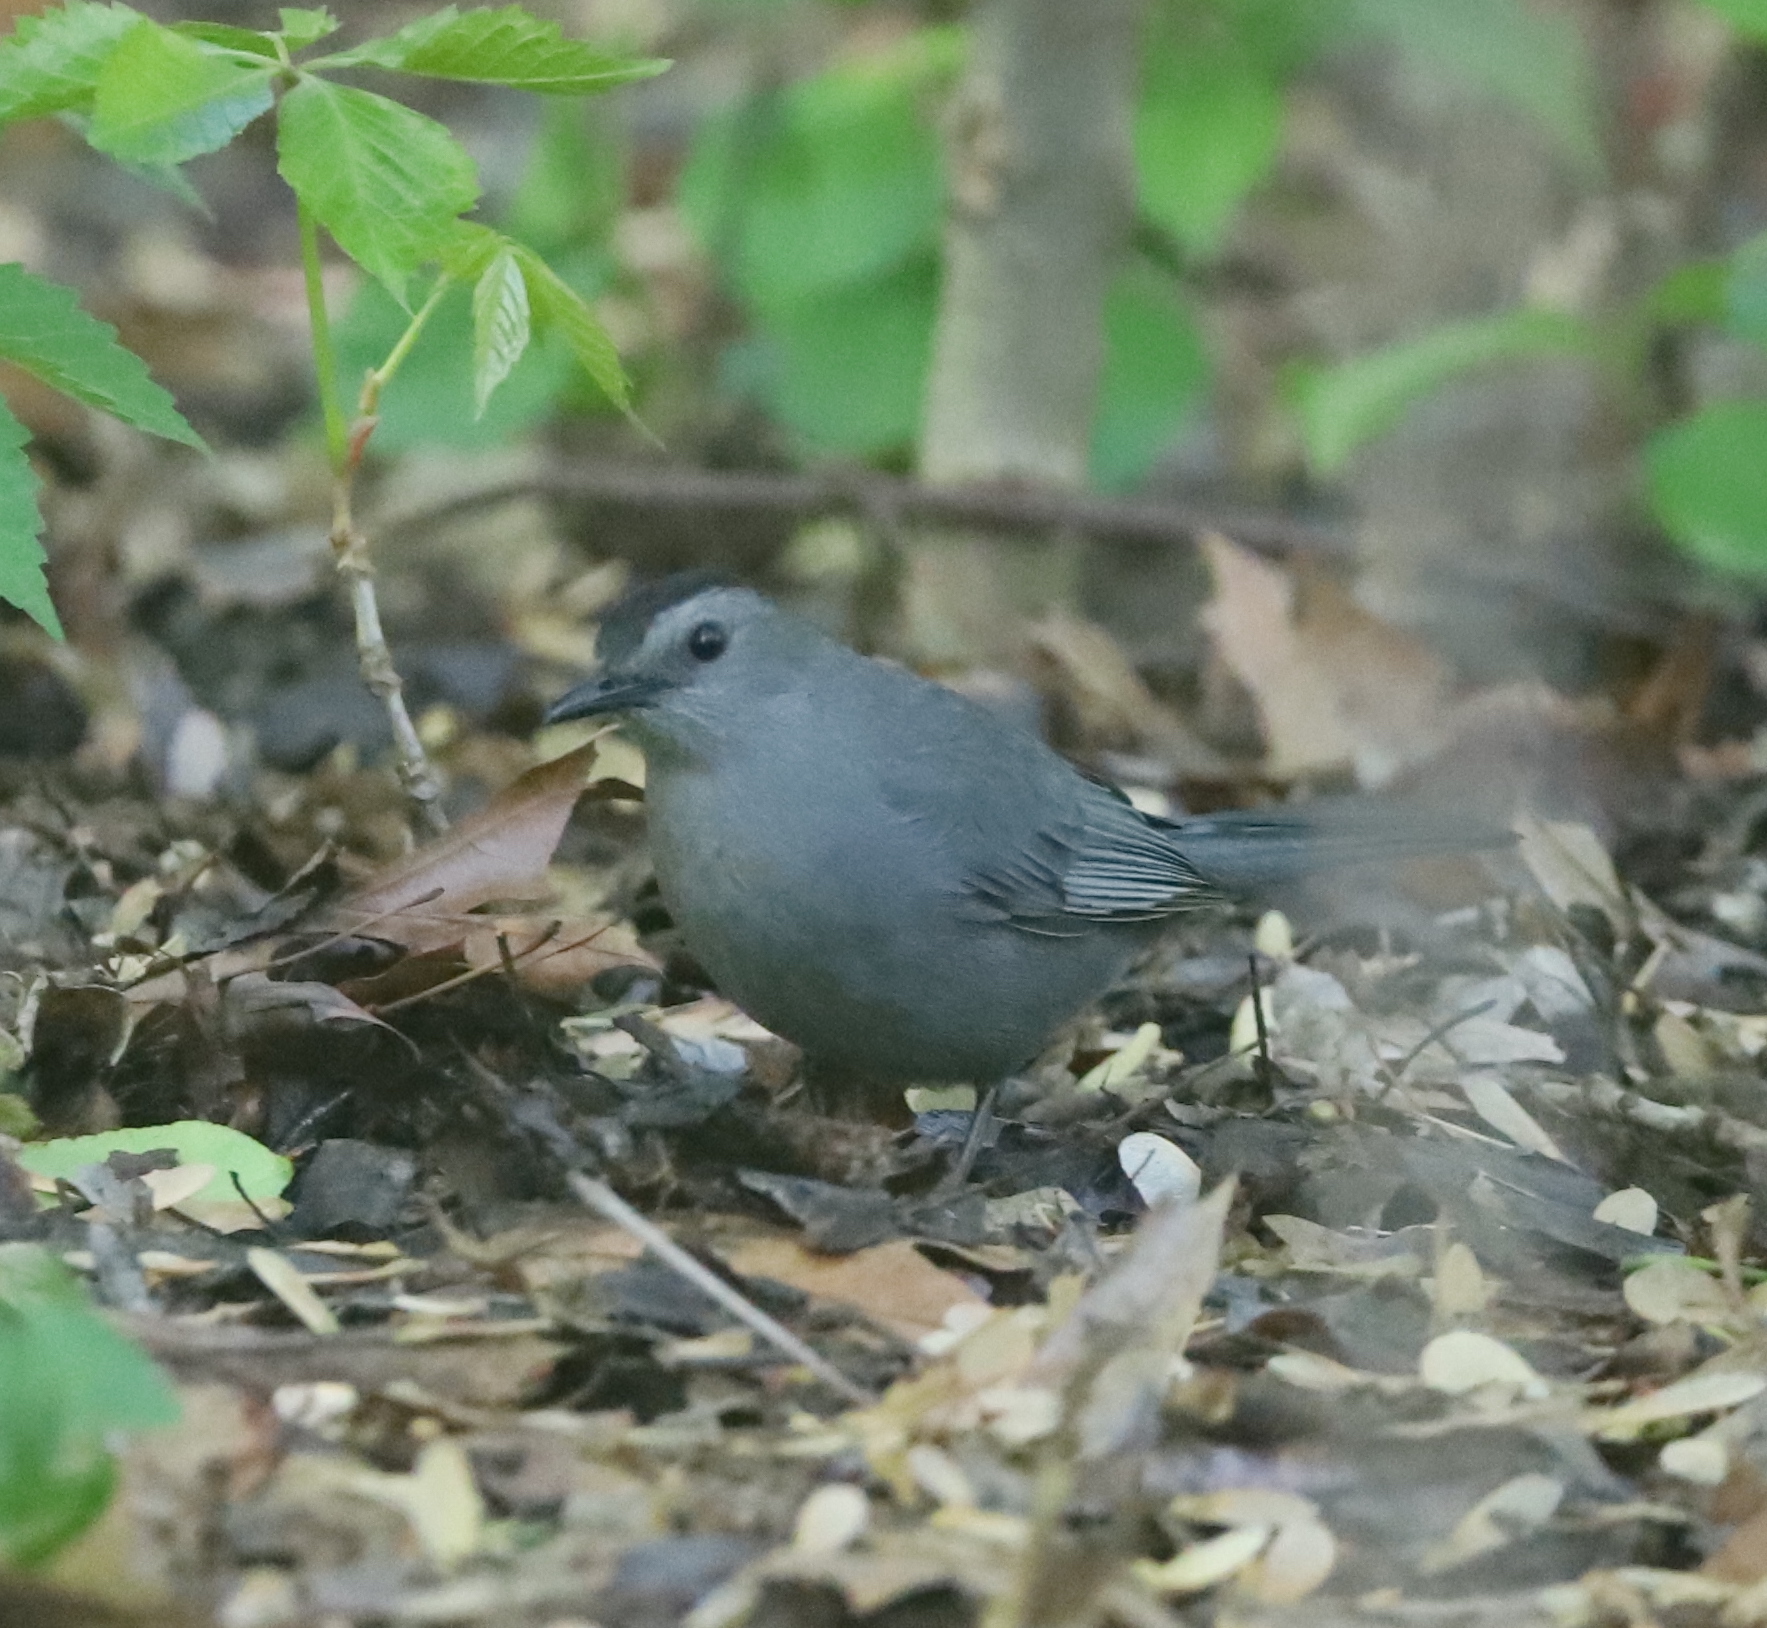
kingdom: Animalia
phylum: Chordata
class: Aves
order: Passeriformes
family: Mimidae
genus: Dumetella
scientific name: Dumetella carolinensis
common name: Gray catbird
